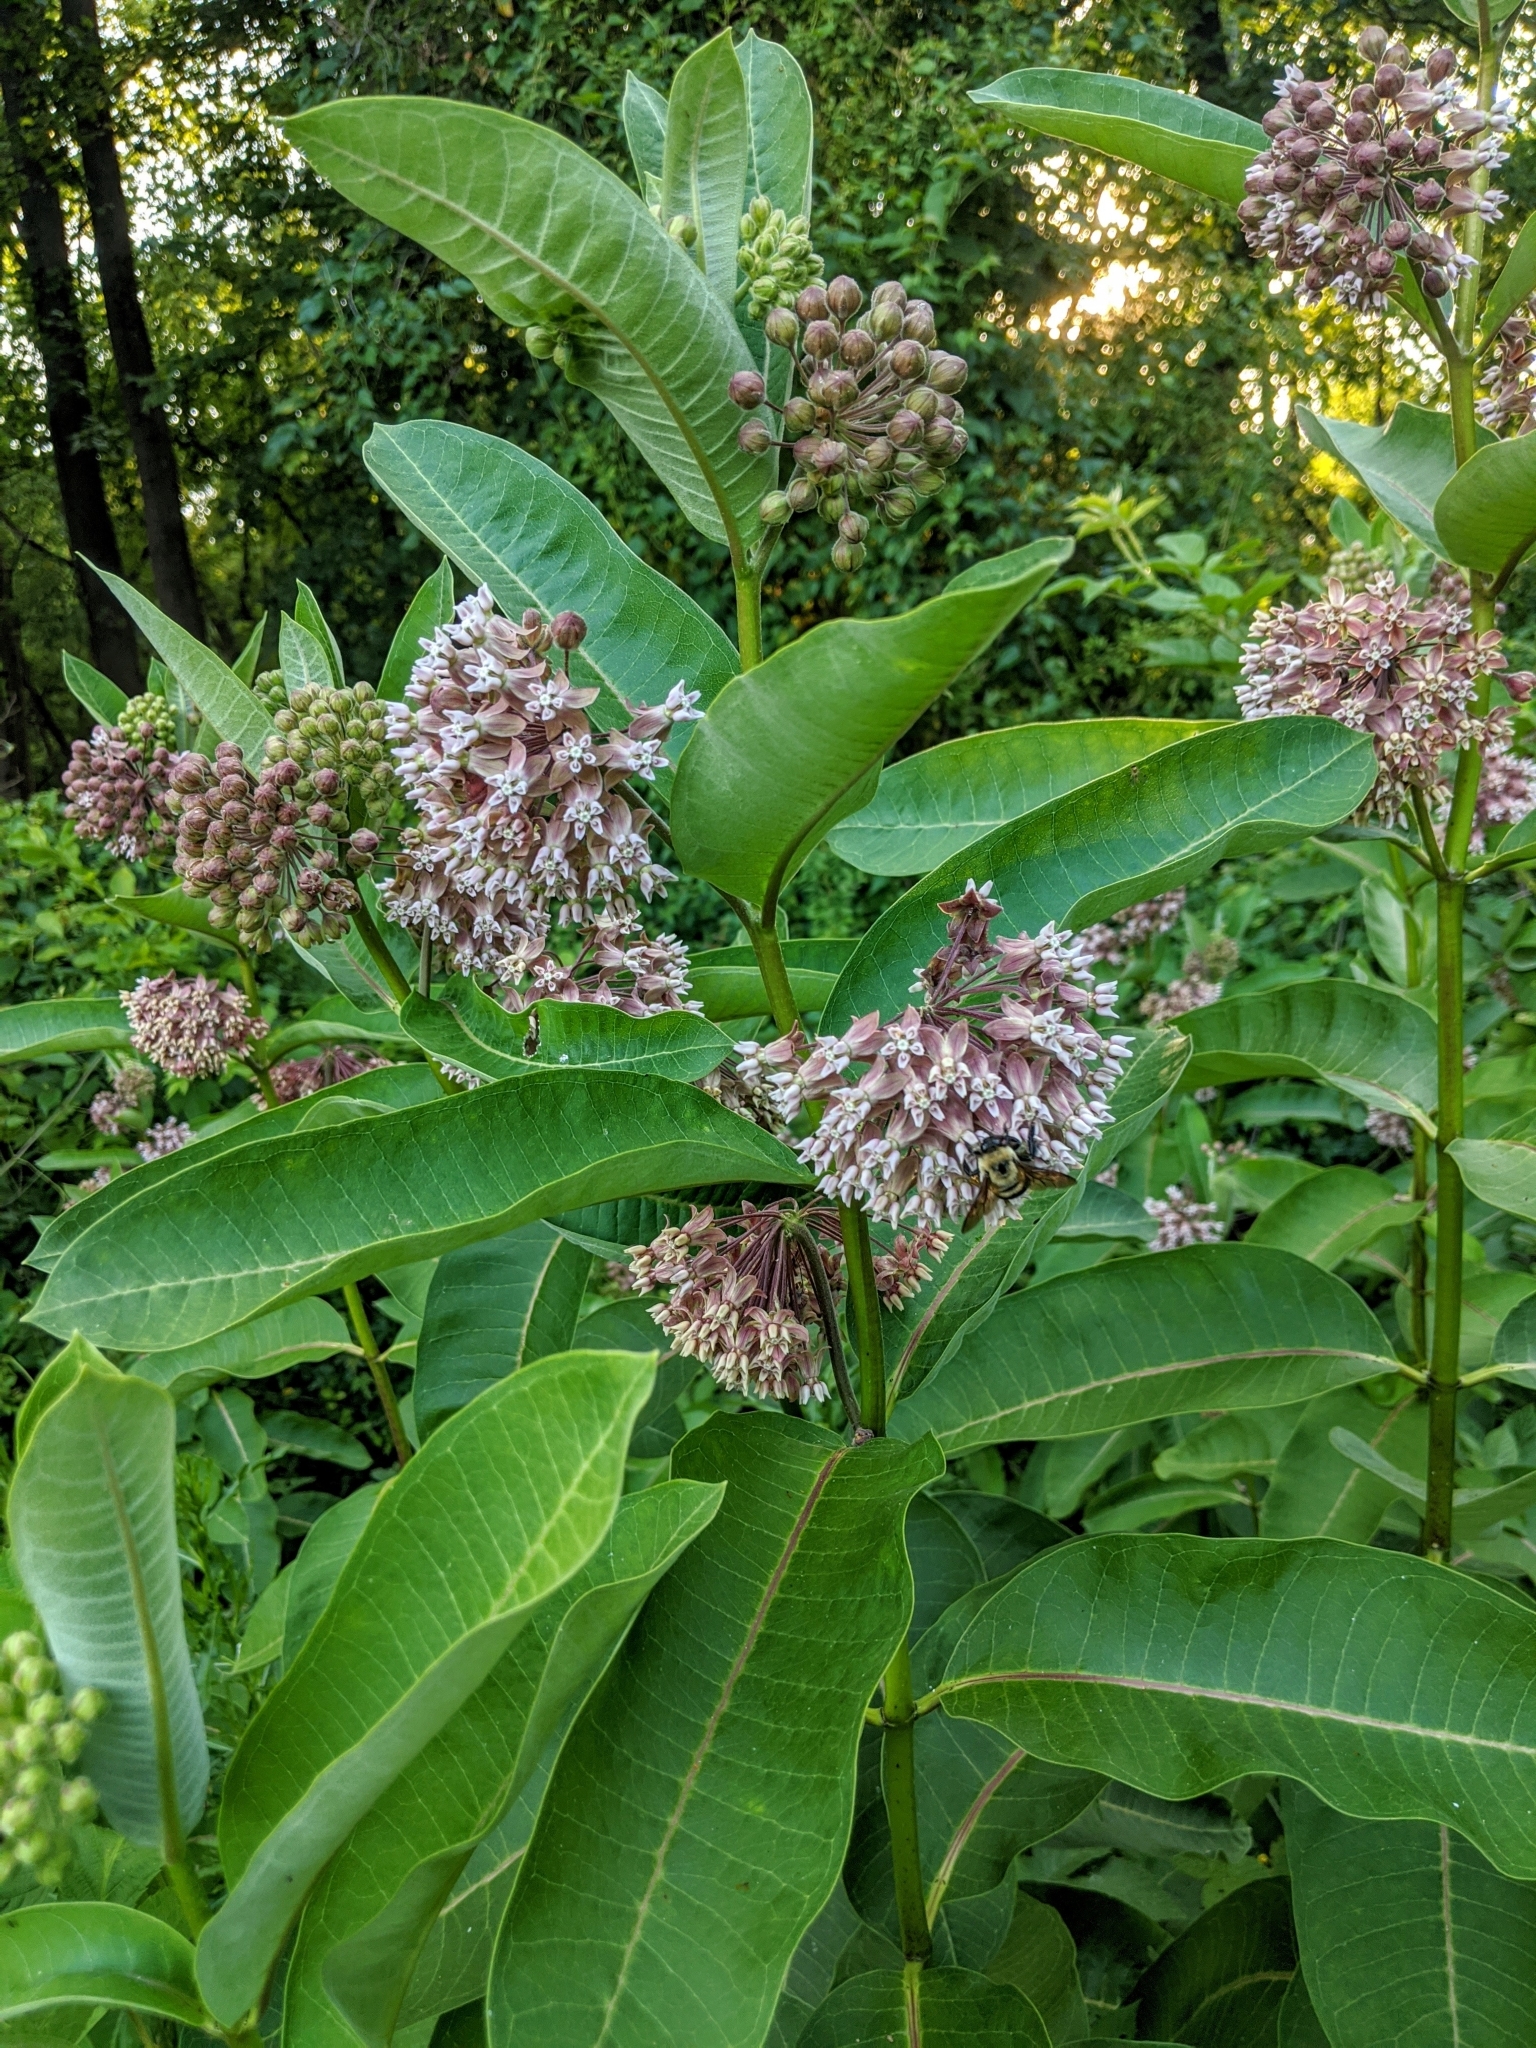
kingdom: Plantae
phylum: Tracheophyta
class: Magnoliopsida
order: Gentianales
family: Apocynaceae
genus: Asclepias
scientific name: Asclepias syriaca
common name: Common milkweed
